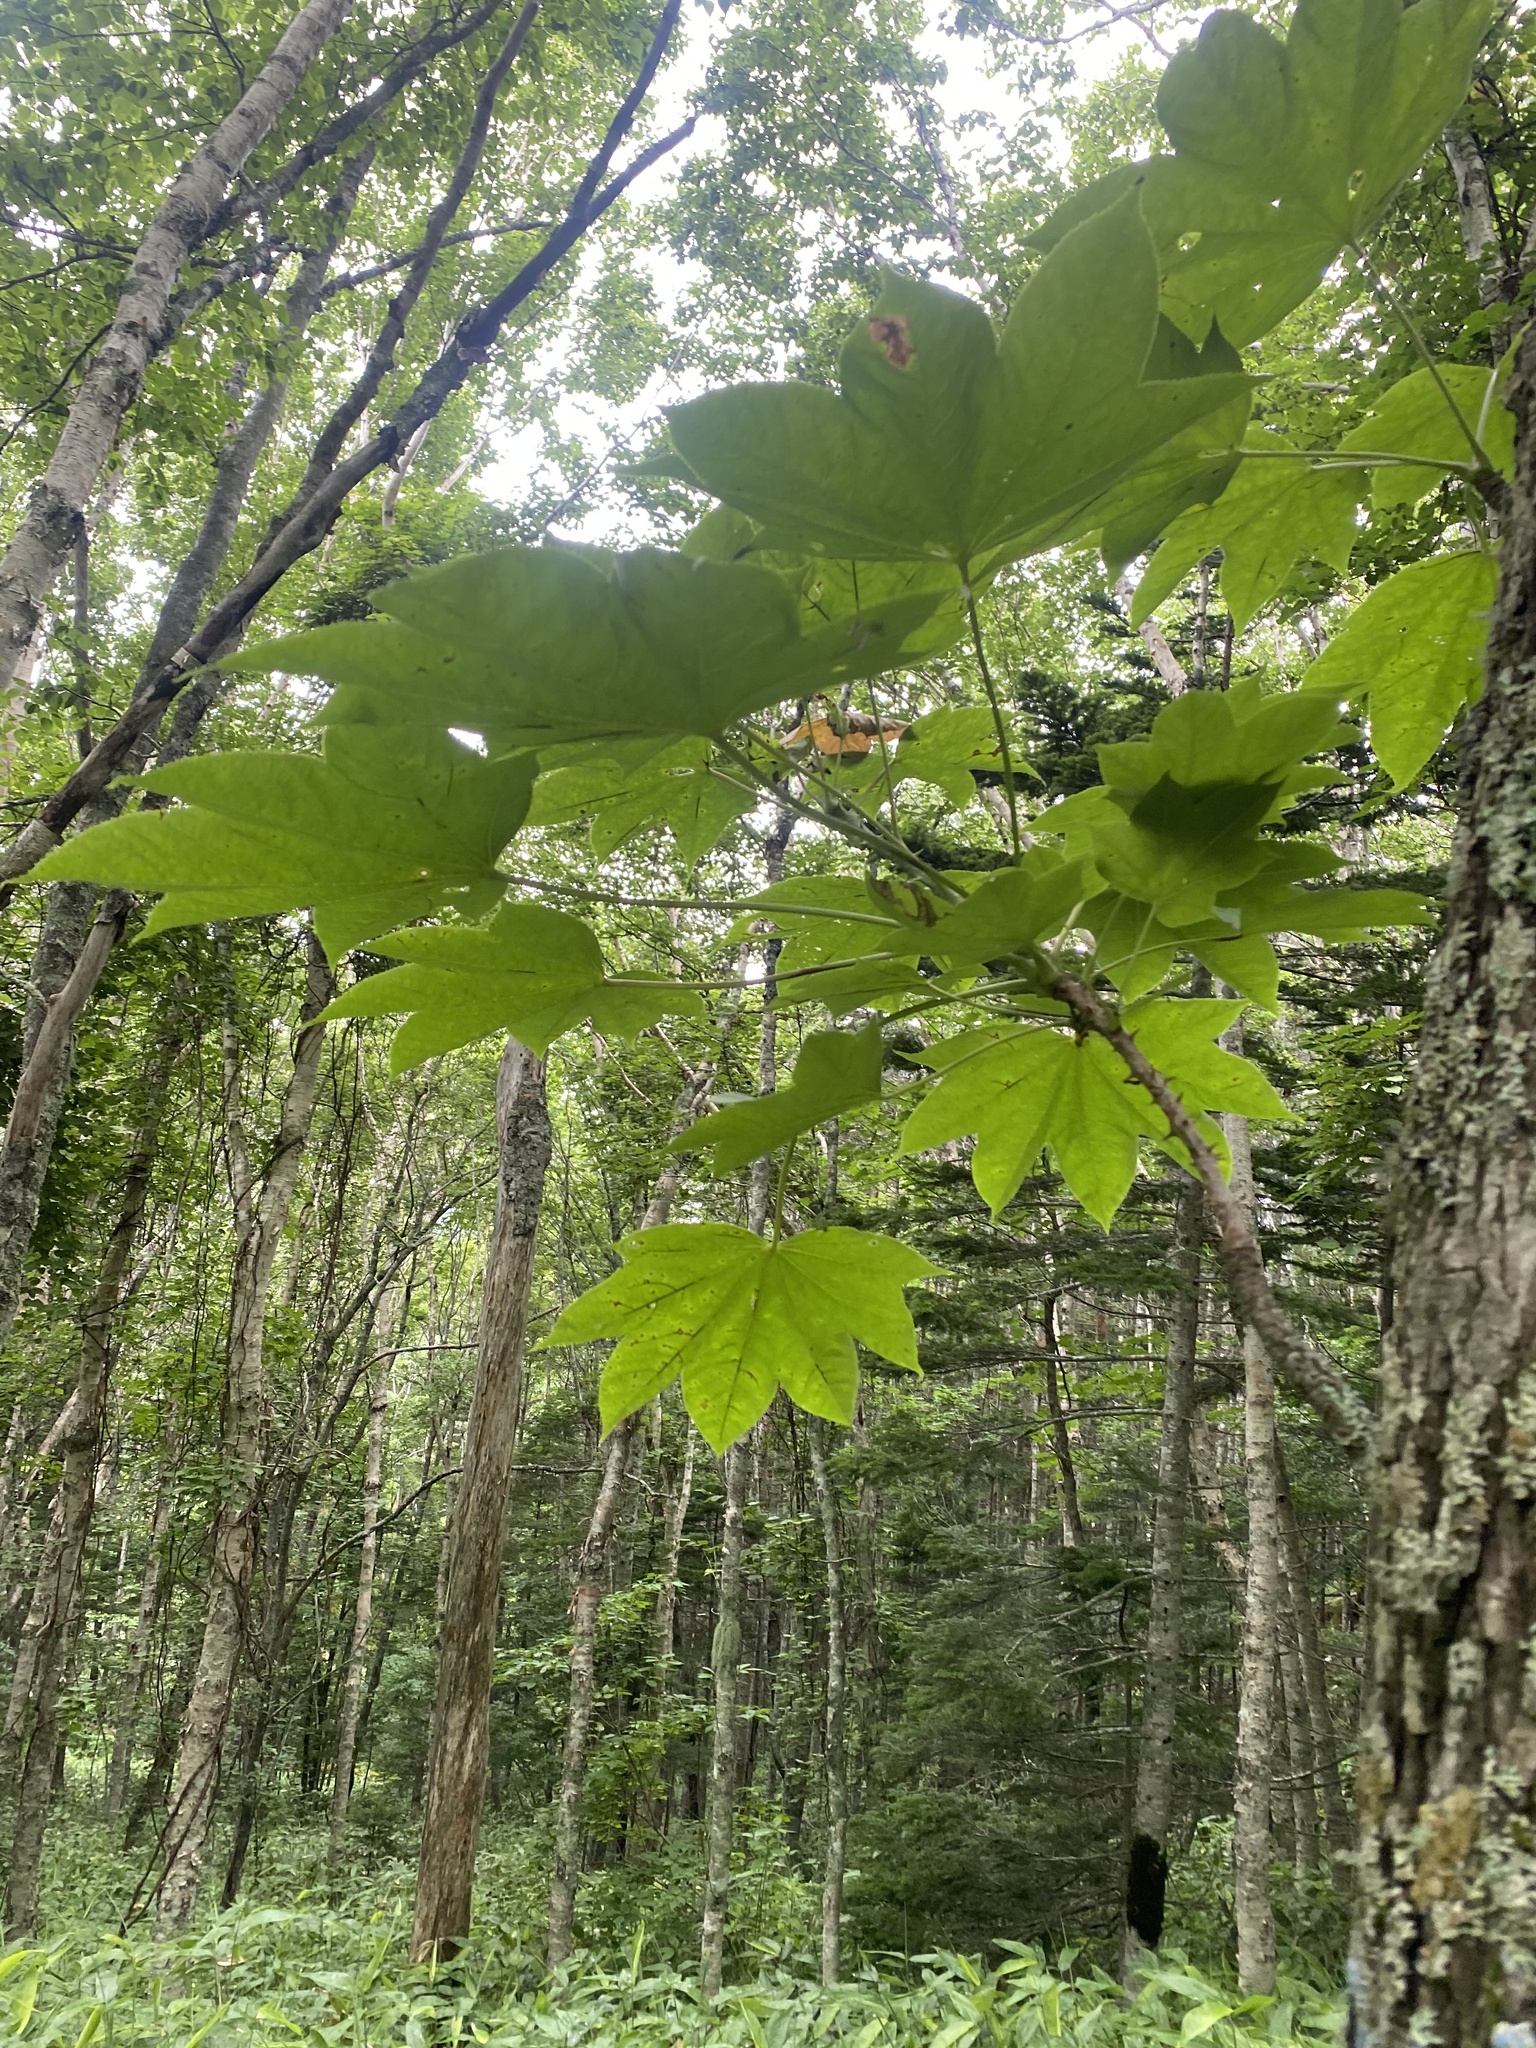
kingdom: Plantae
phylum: Tracheophyta
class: Magnoliopsida
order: Apiales
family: Araliaceae
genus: Kalopanax
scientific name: Kalopanax septemlobus
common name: Castor aralia
